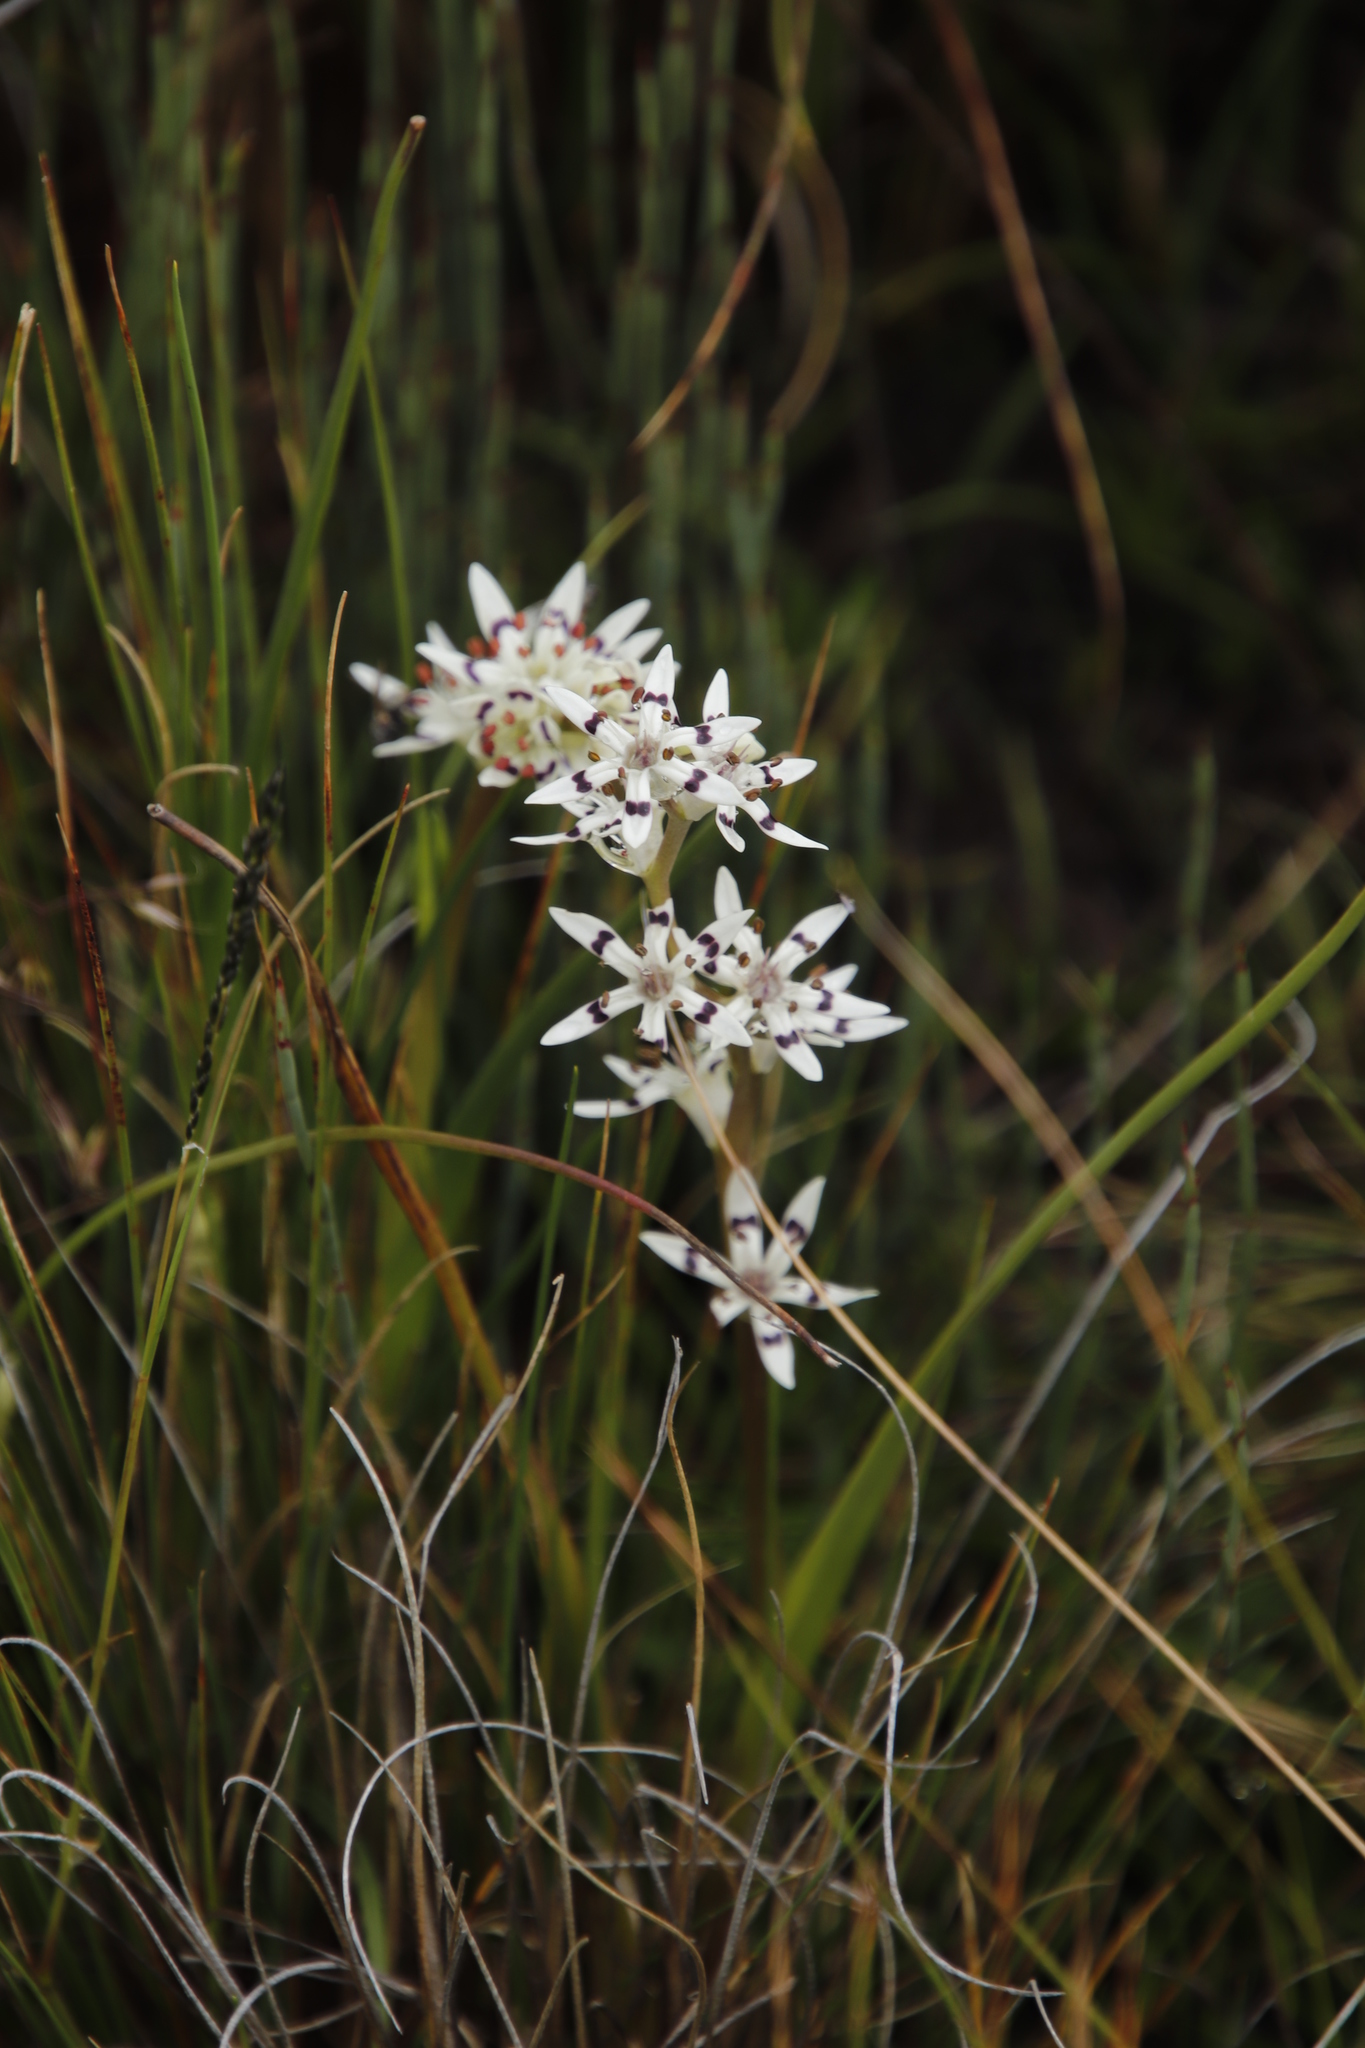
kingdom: Plantae
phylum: Tracheophyta
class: Liliopsida
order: Liliales
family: Colchicaceae
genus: Wurmbea
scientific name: Wurmbea elatior
